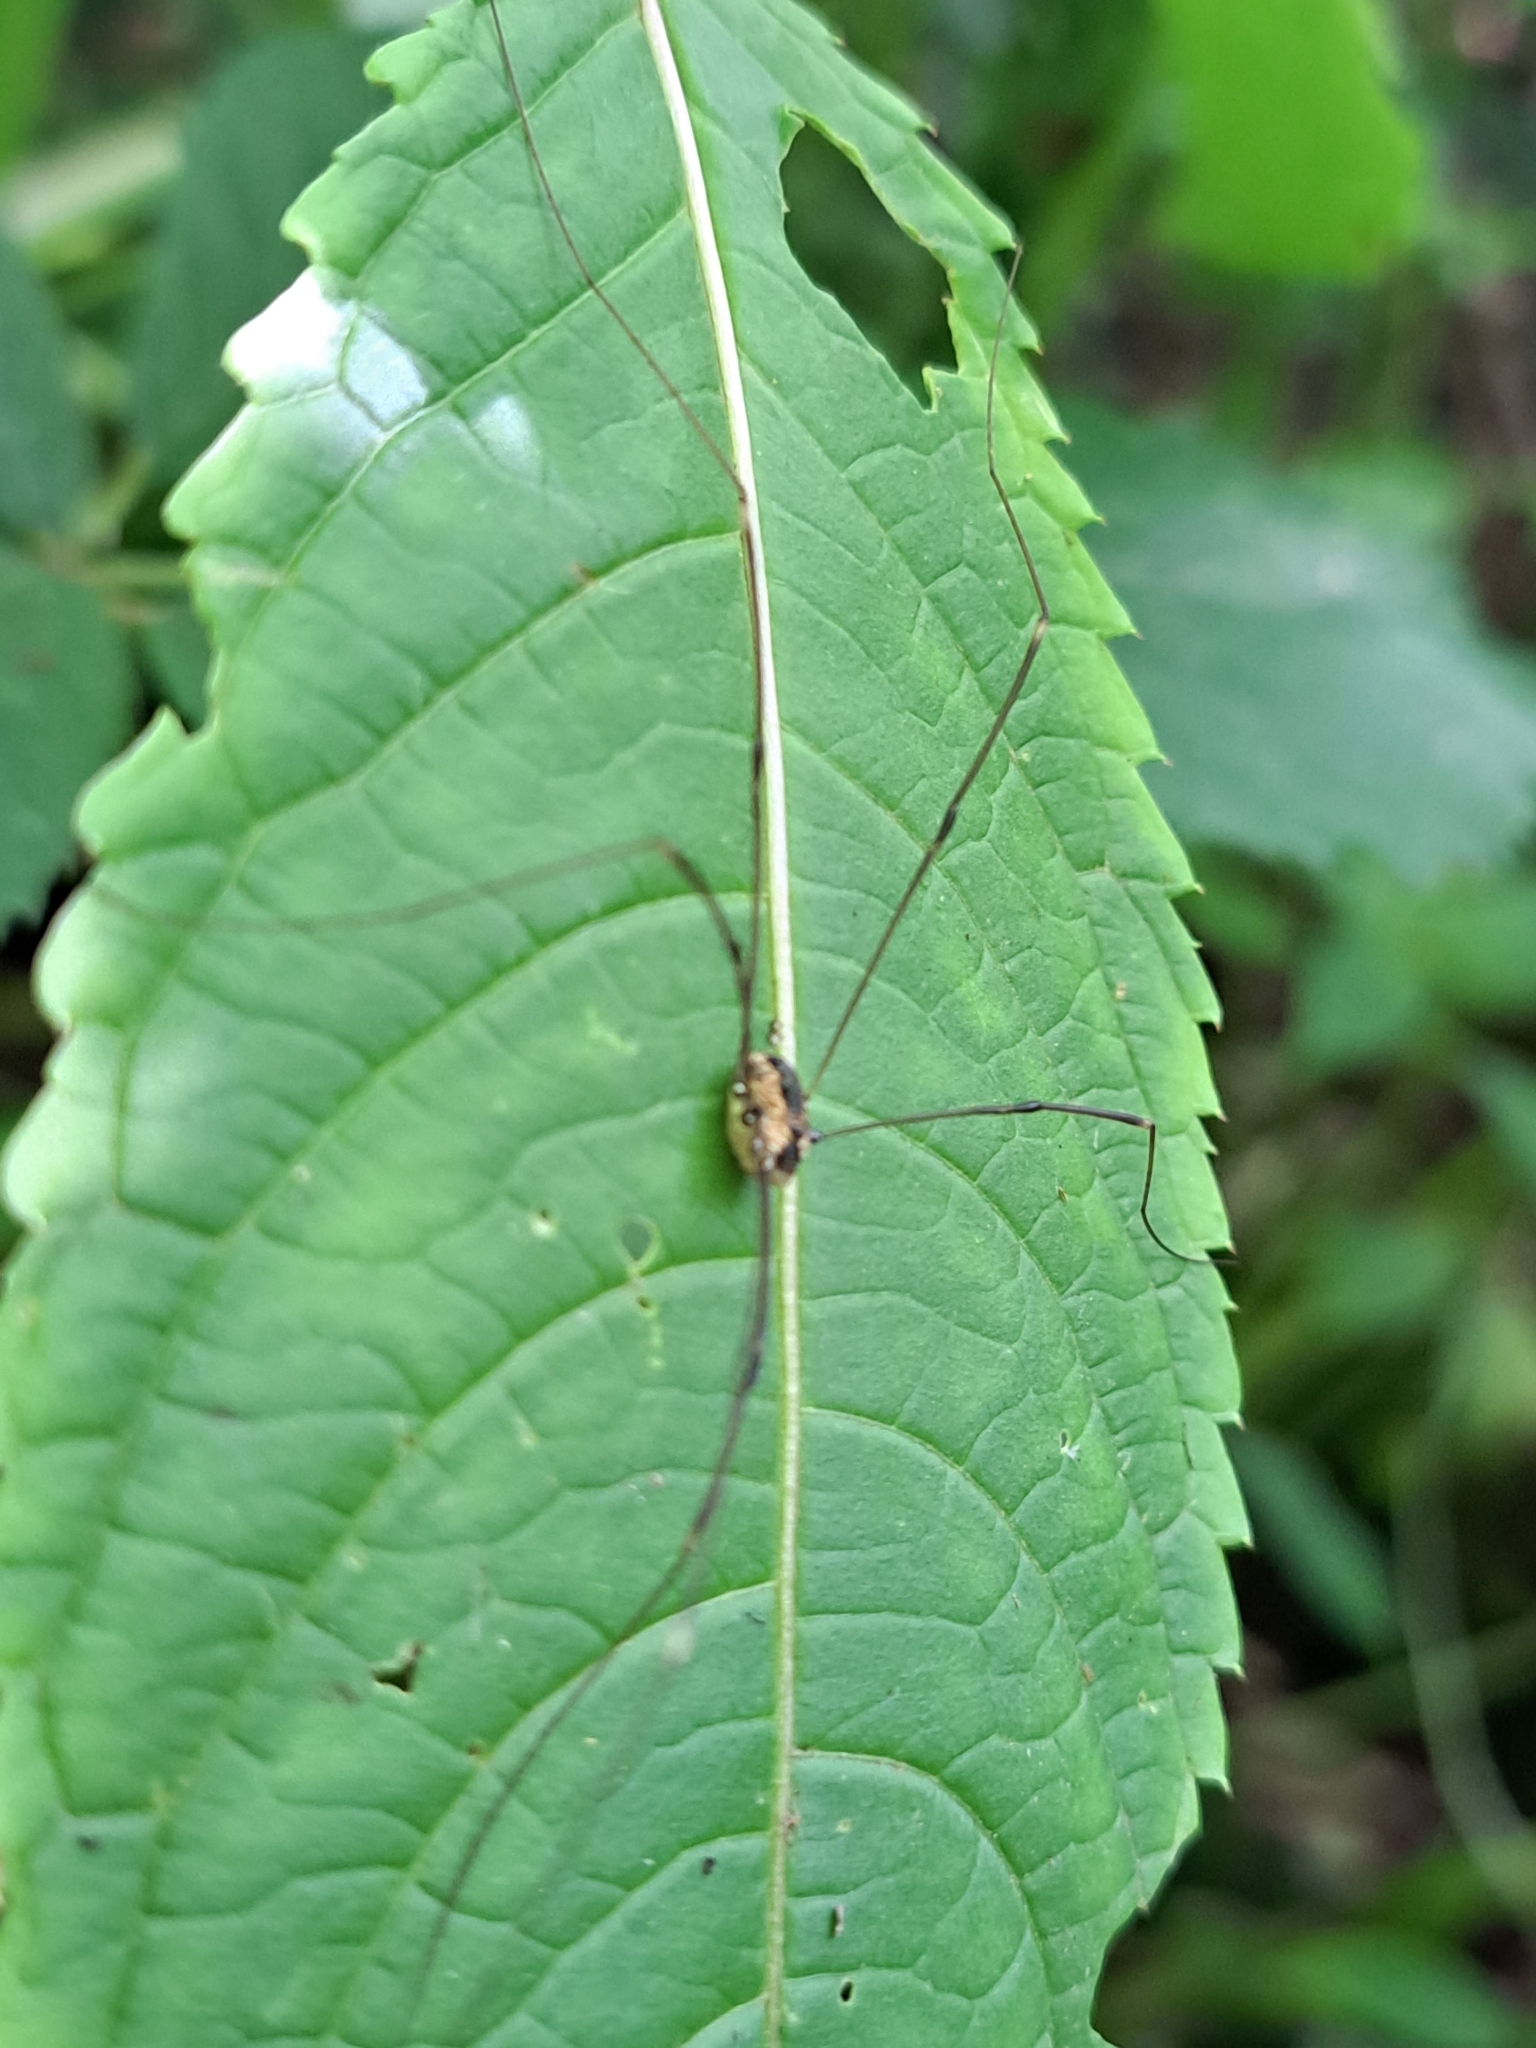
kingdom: Animalia
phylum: Arthropoda
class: Arachnida
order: Opiliones
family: Sclerosomatidae
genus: Leiobunum
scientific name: Leiobunum rotundum
